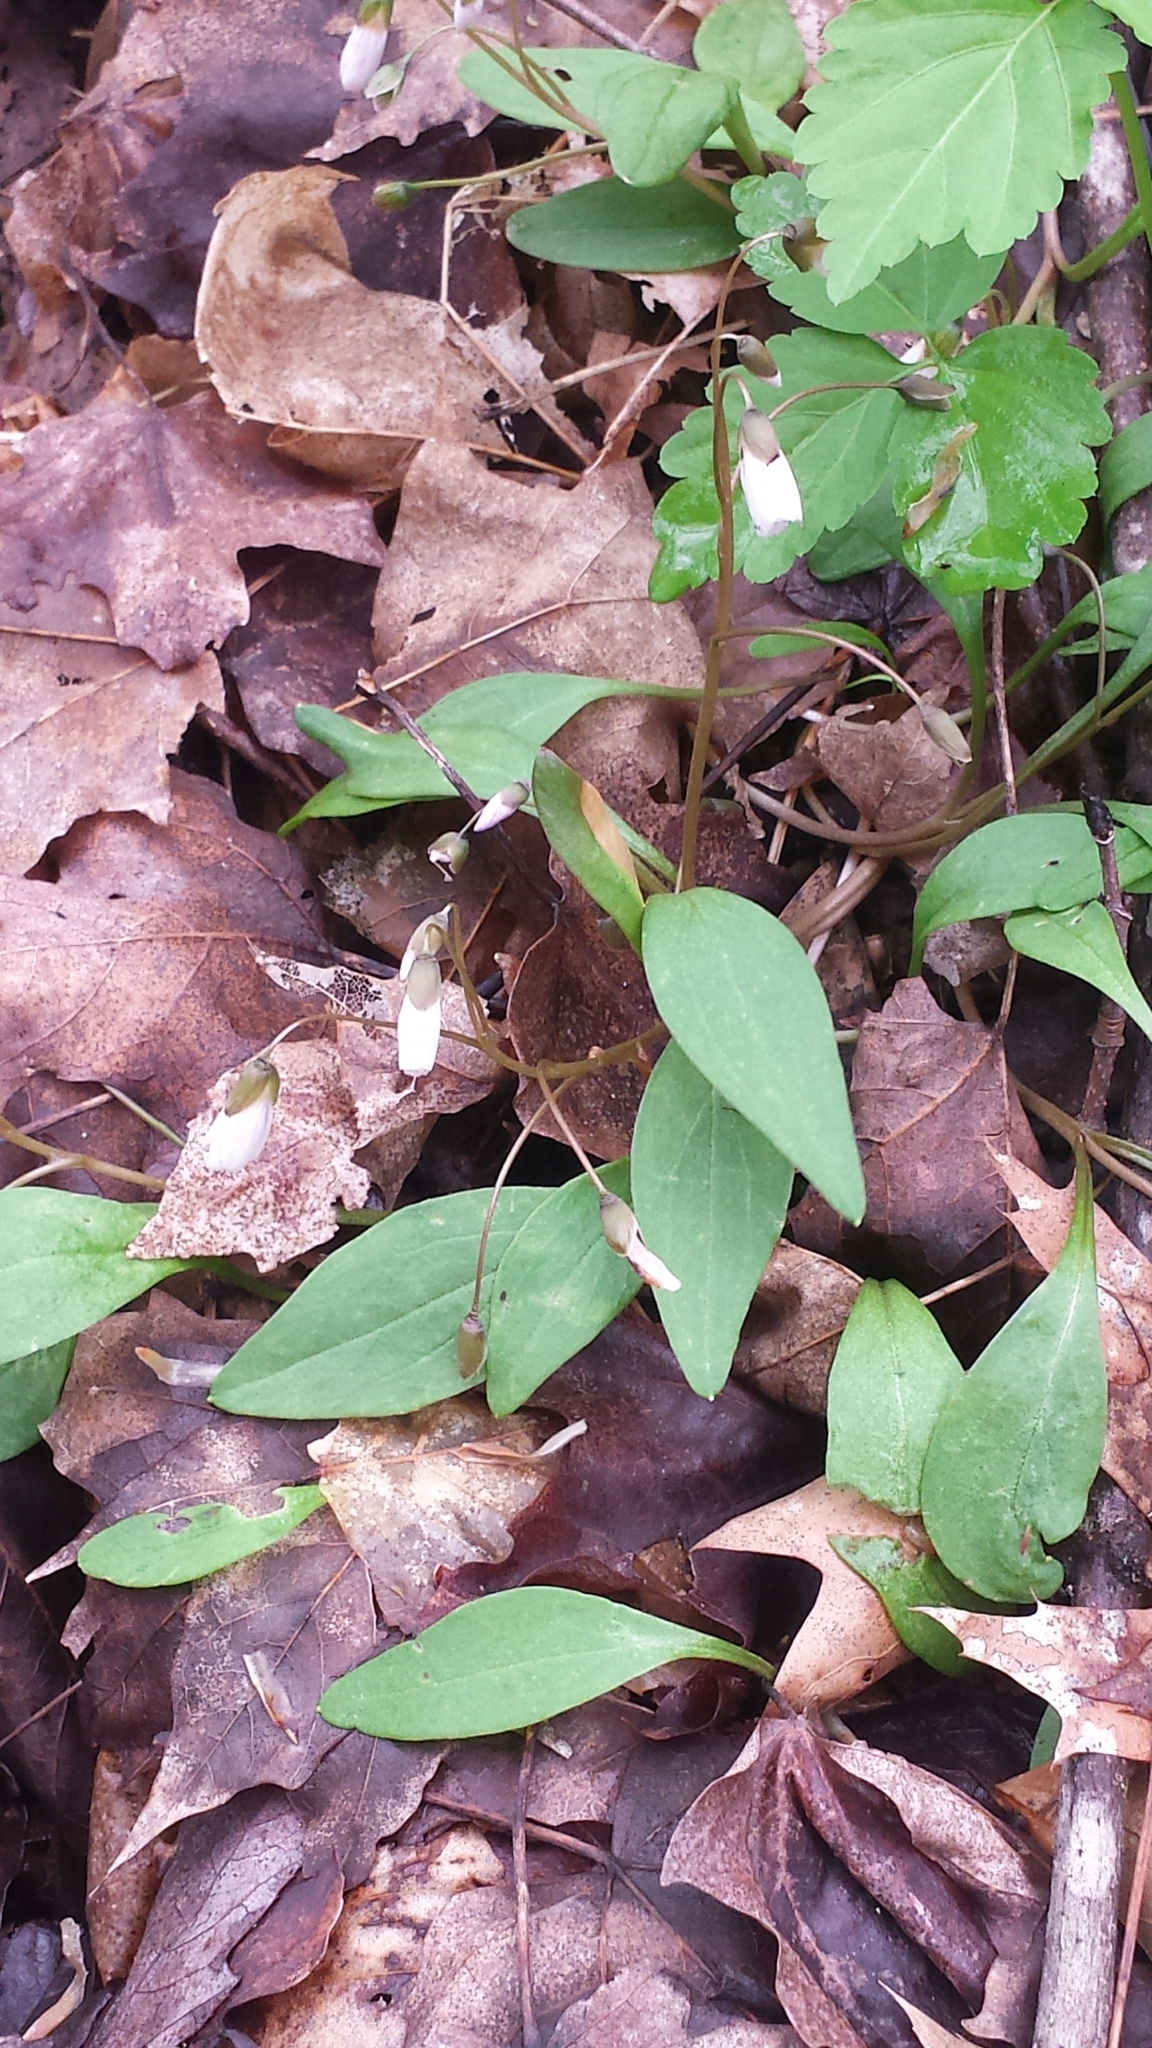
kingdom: Plantae
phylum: Tracheophyta
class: Magnoliopsida
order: Caryophyllales
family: Montiaceae
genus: Claytonia
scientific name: Claytonia caroliniana
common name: Carolina spring beauty
